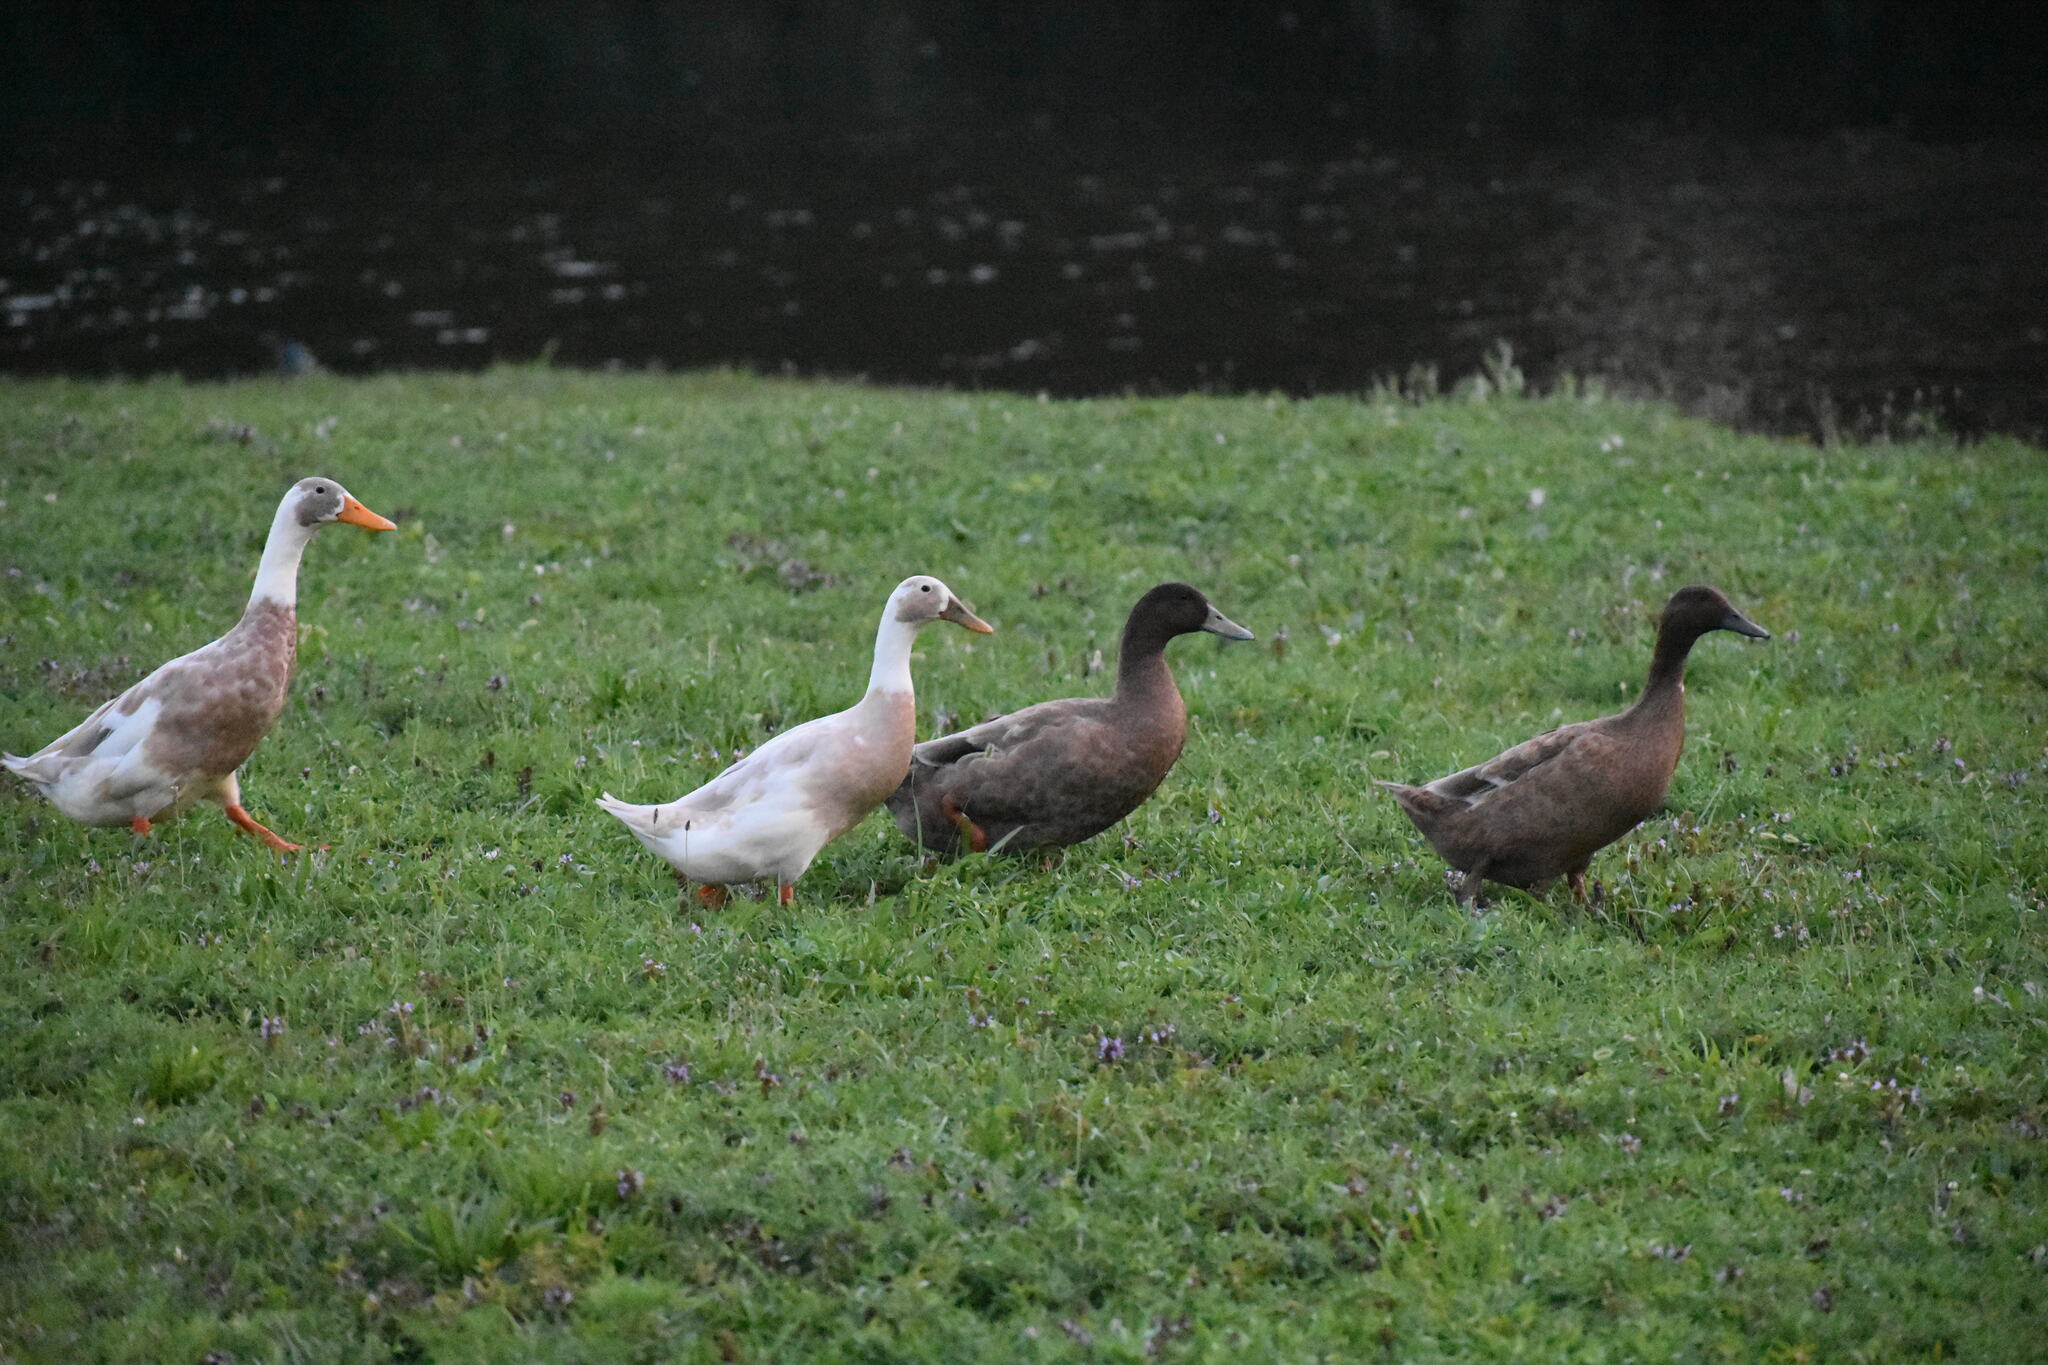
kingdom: Animalia
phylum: Chordata
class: Aves
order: Anseriformes
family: Anatidae
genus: Anas
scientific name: Anas platyrhynchos
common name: Mallard
